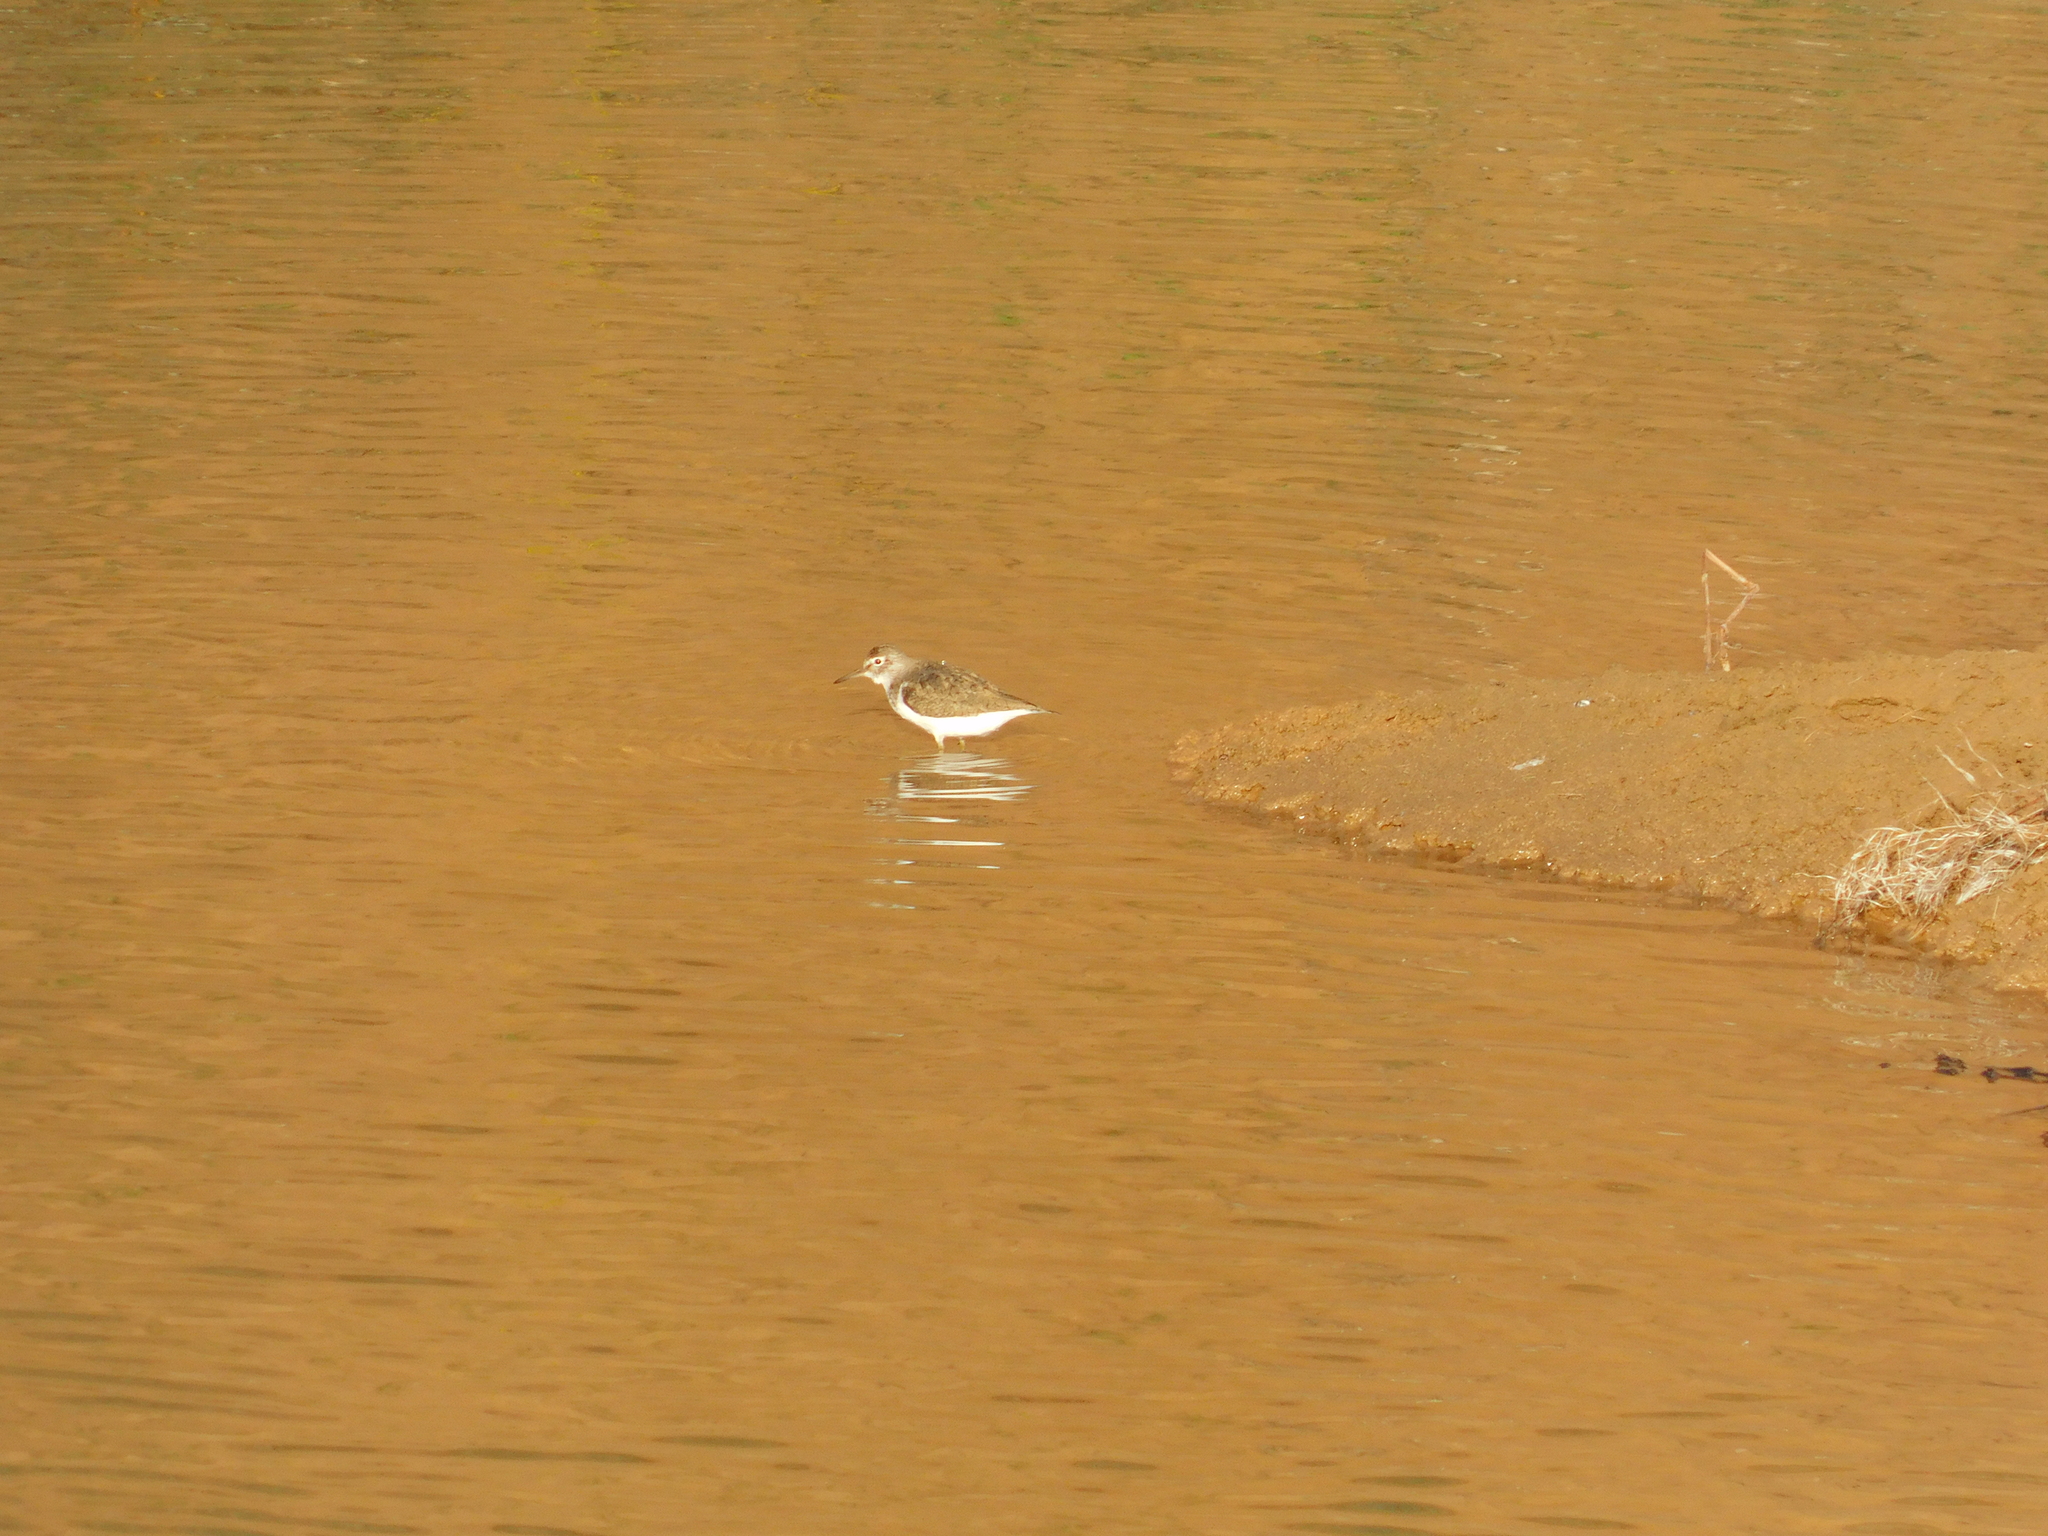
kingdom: Animalia
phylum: Chordata
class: Aves
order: Charadriiformes
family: Scolopacidae
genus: Actitis
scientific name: Actitis hypoleucos
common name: Common sandpiper
